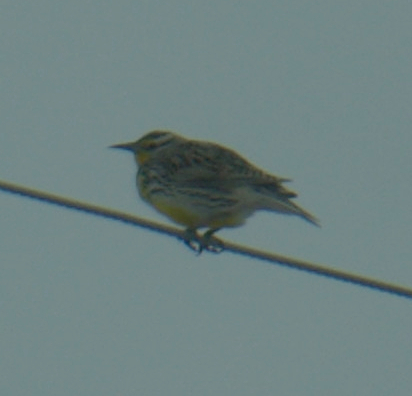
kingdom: Animalia
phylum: Chordata
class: Aves
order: Passeriformes
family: Icteridae
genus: Sturnella
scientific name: Sturnella neglecta
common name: Western meadowlark
